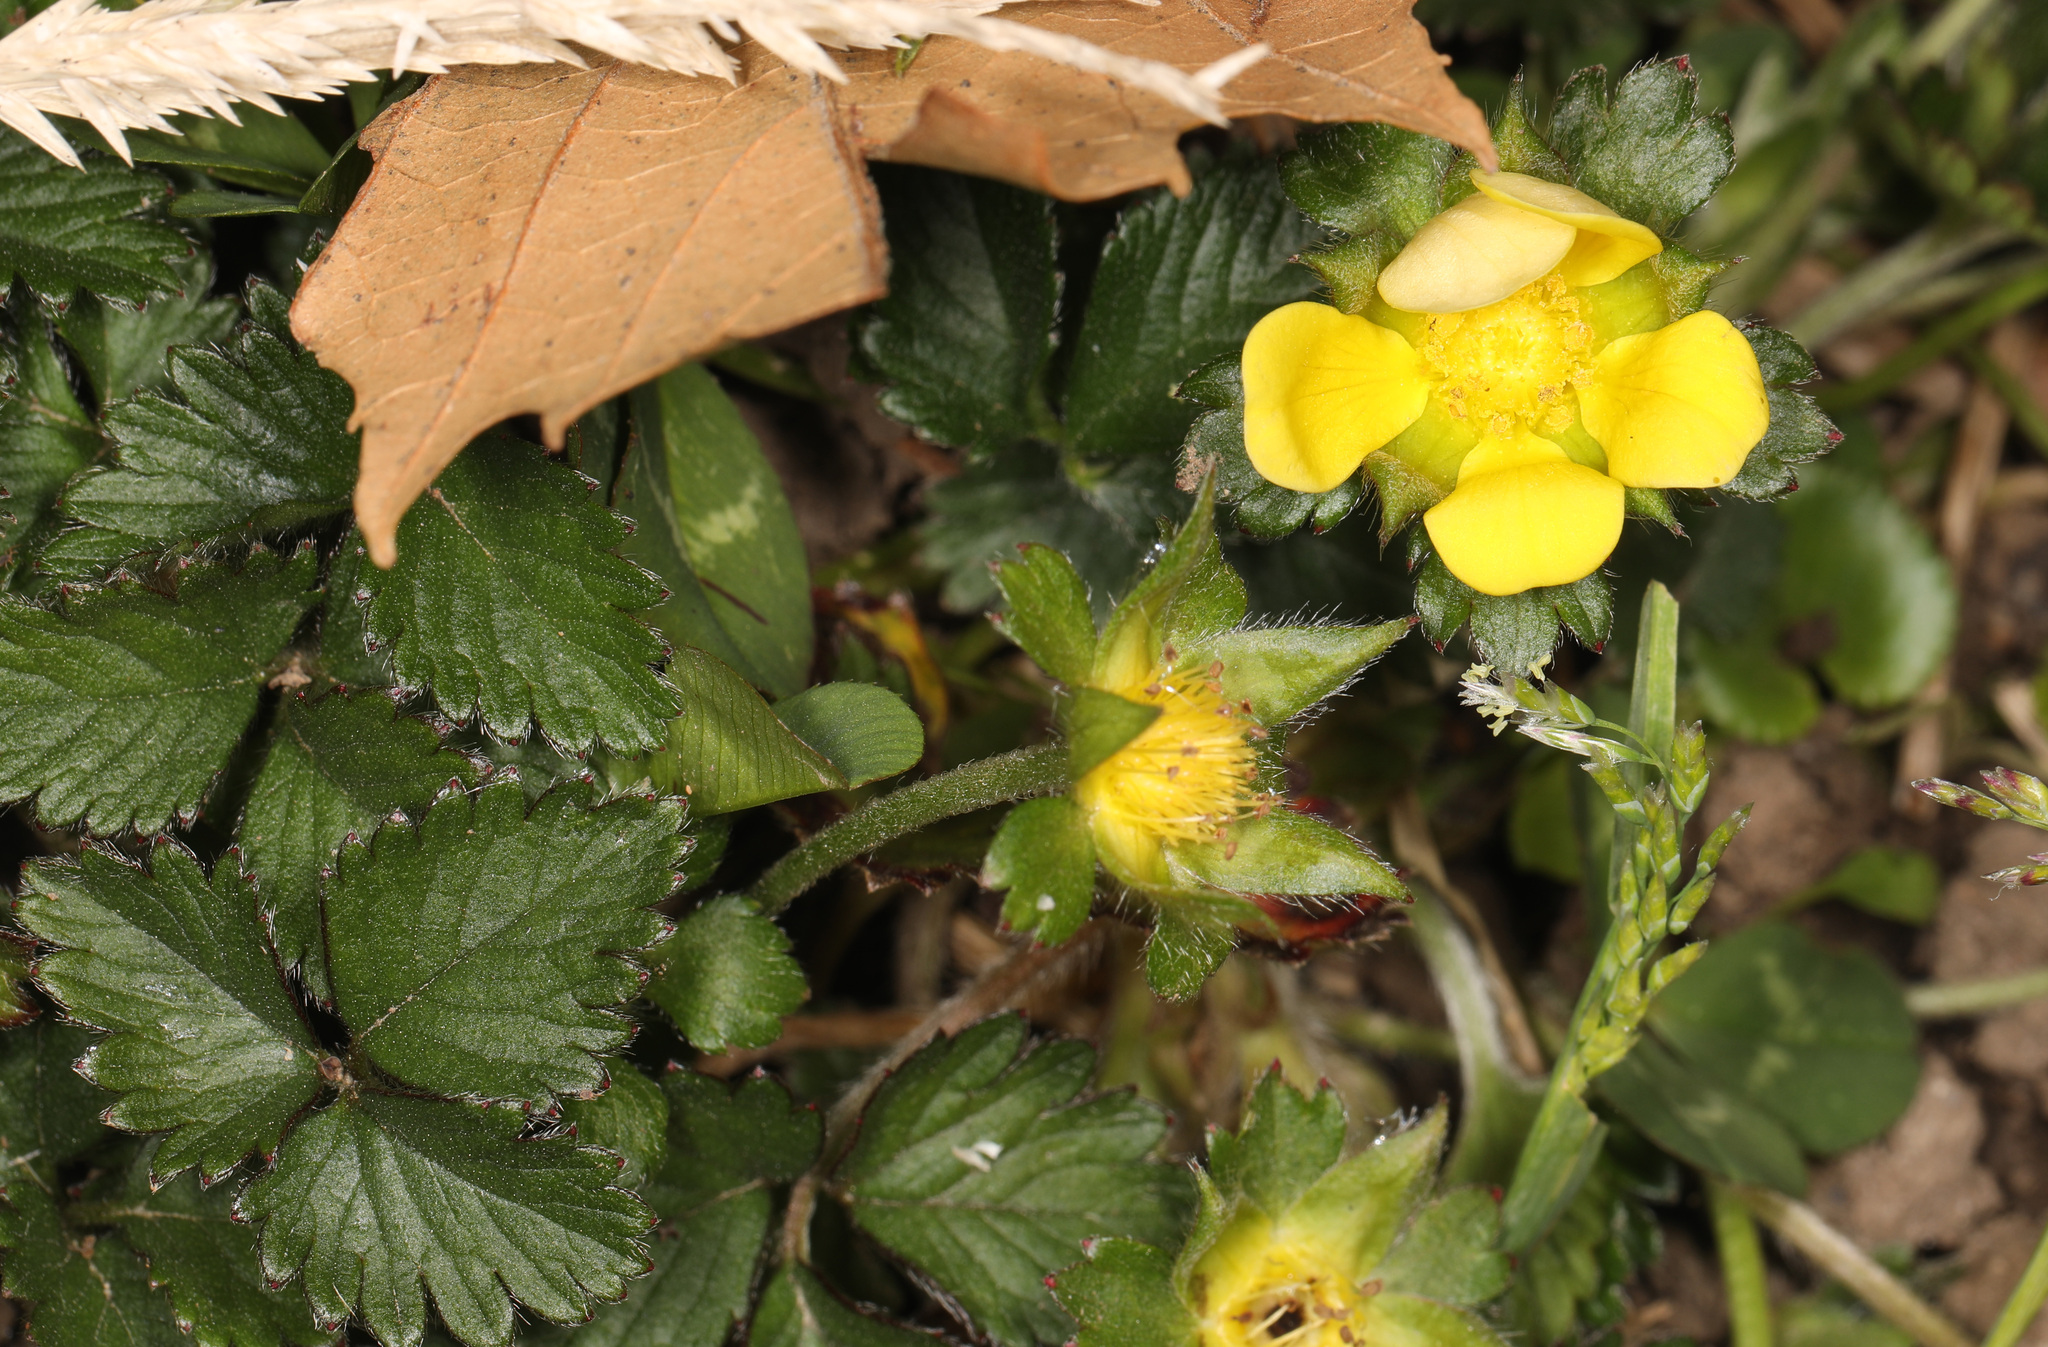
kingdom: Plantae
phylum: Tracheophyta
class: Magnoliopsida
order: Rosales
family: Rosaceae
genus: Potentilla
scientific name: Potentilla indica
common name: Yellow-flowered strawberry
